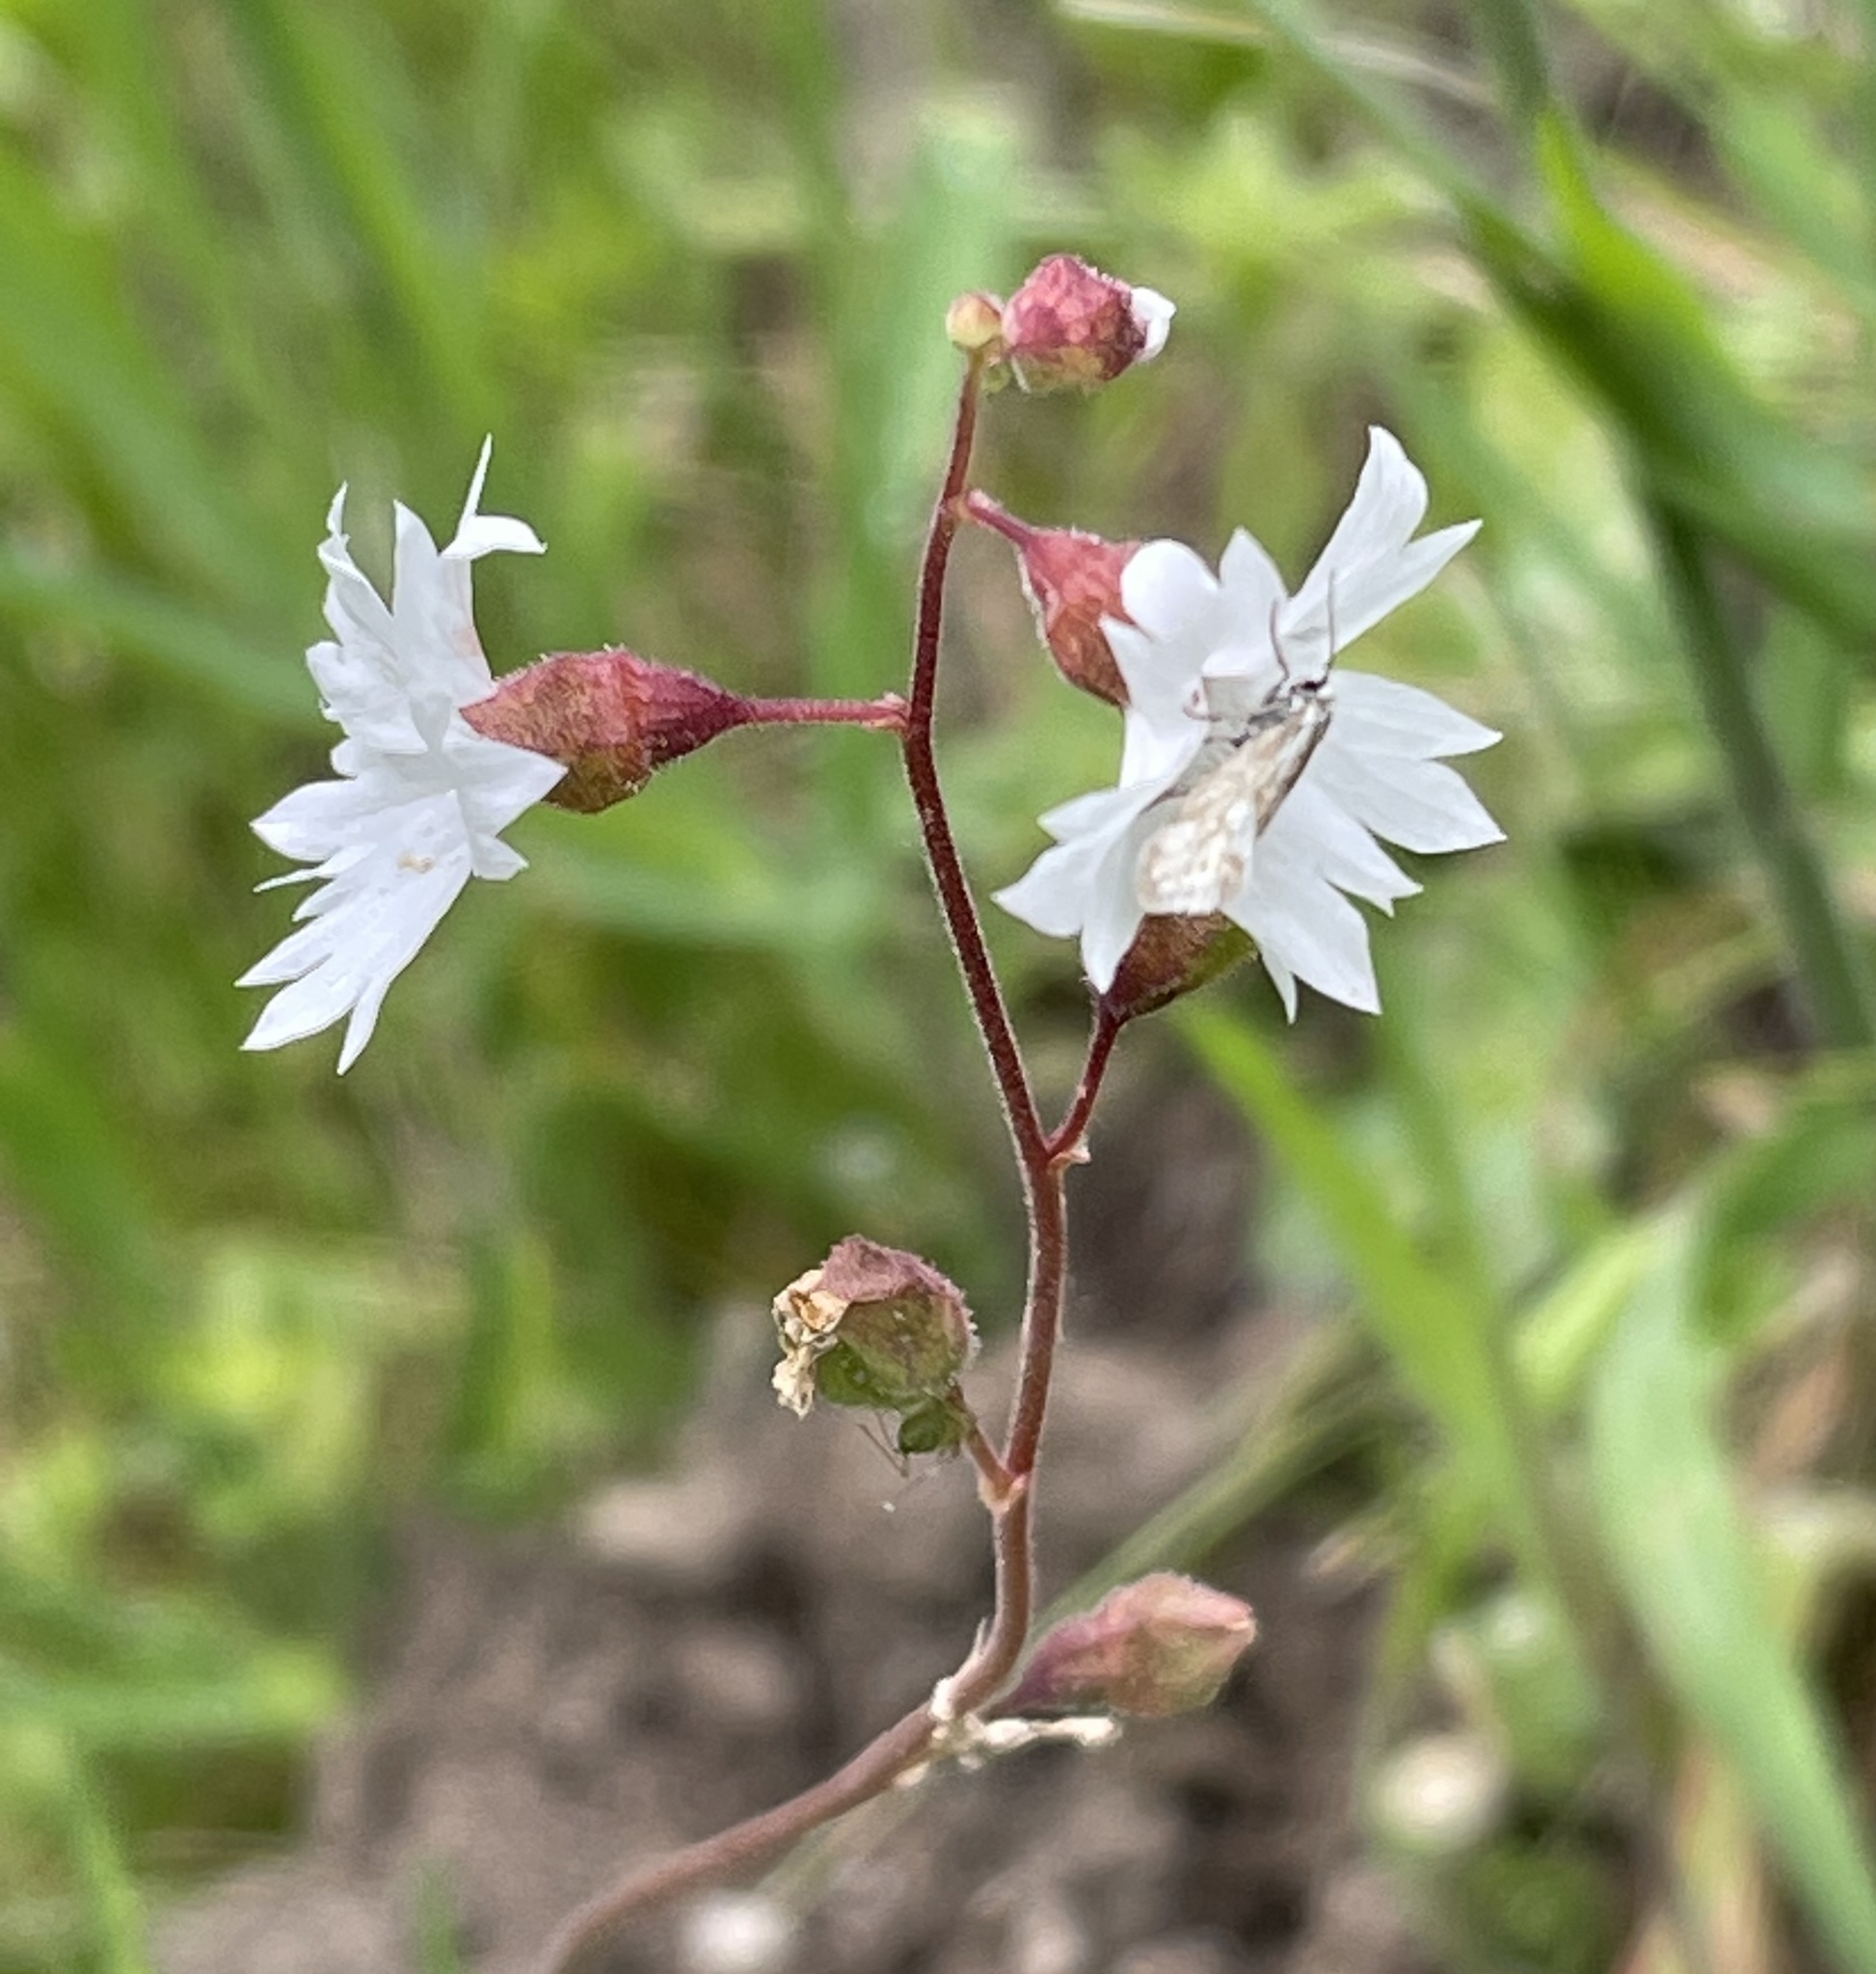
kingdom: Plantae
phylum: Tracheophyta
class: Magnoliopsida
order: Saxifragales
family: Saxifragaceae
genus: Lithophragma
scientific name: Lithophragma affine
